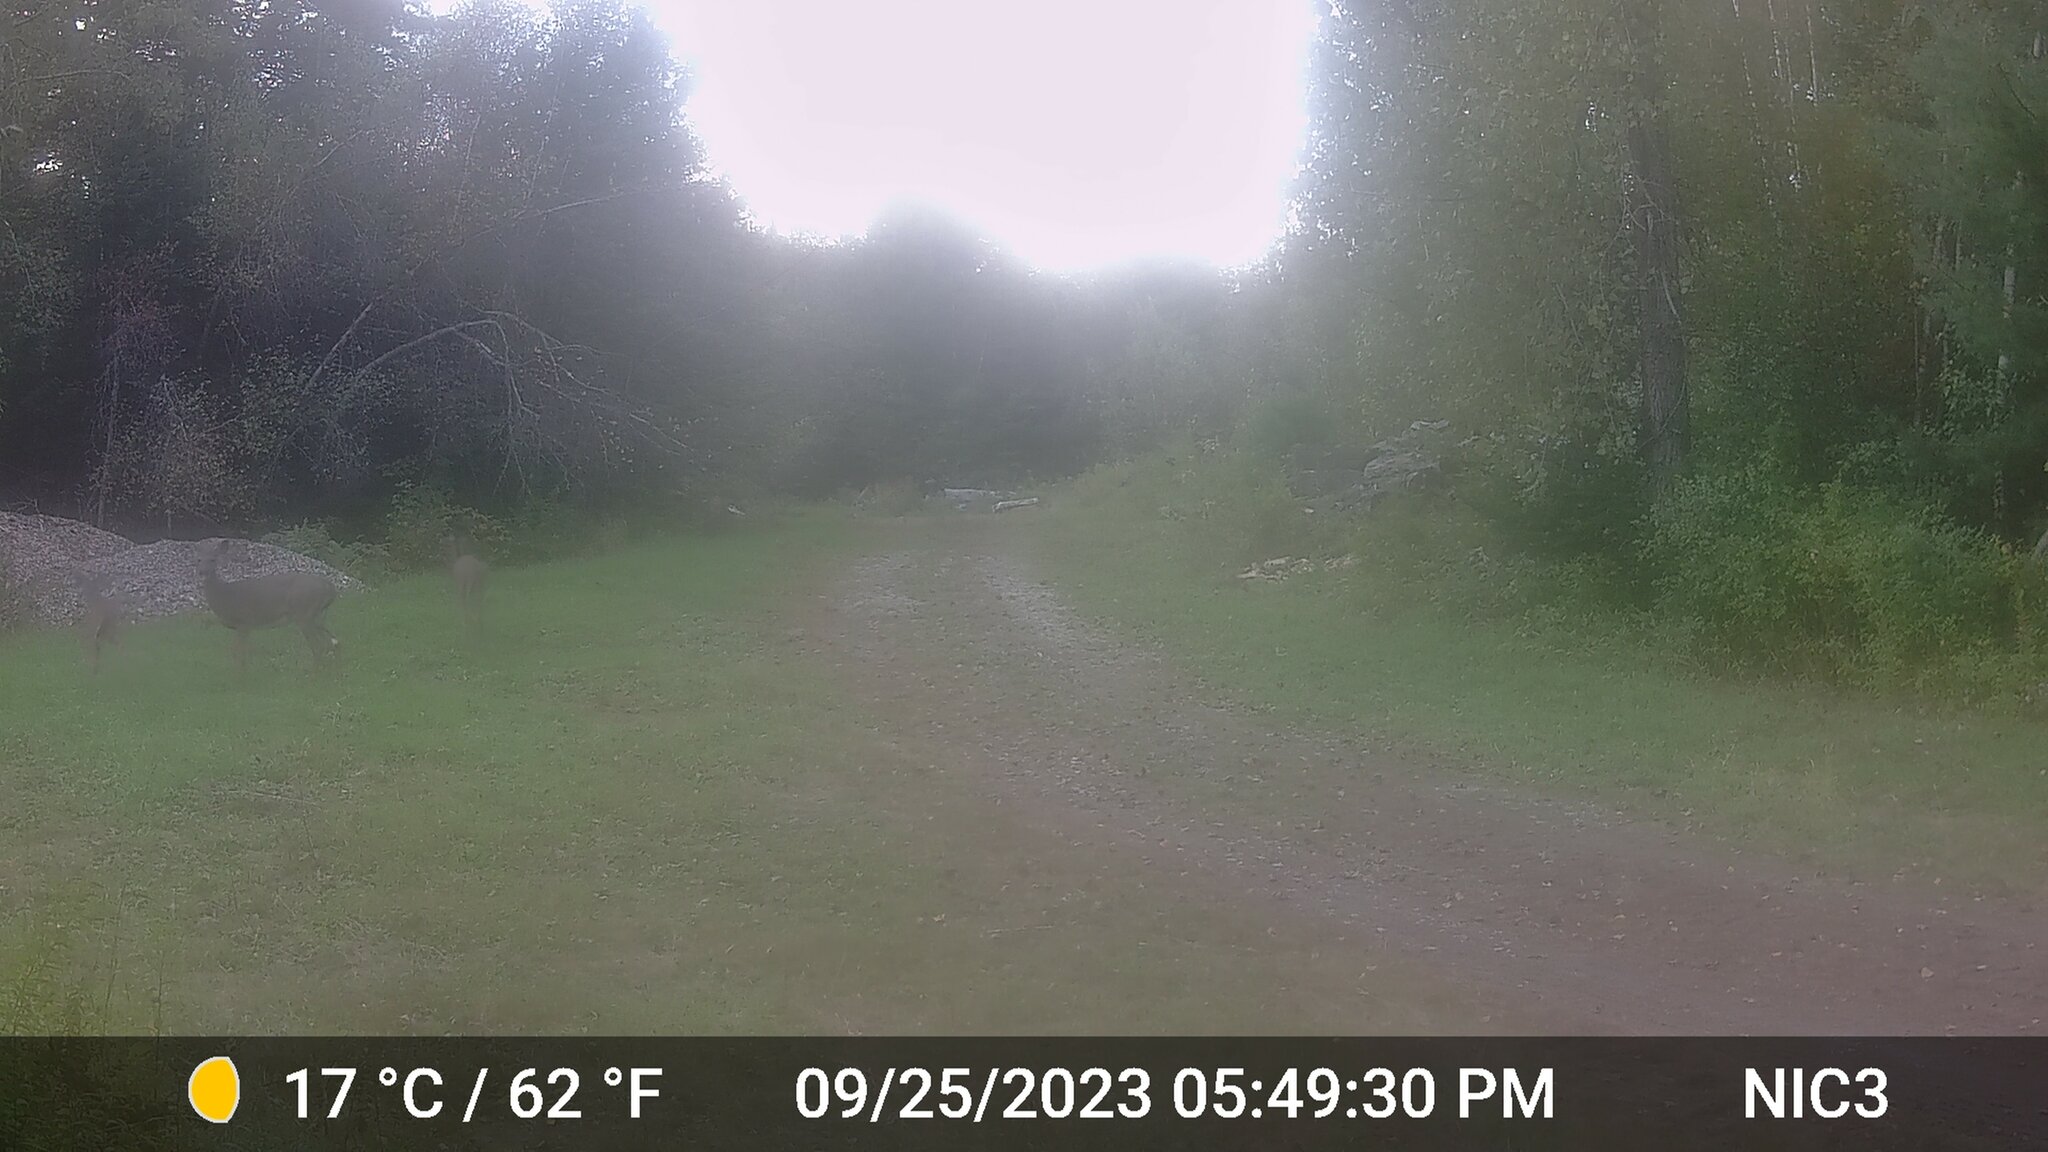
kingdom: Animalia
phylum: Chordata
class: Mammalia
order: Artiodactyla
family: Cervidae
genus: Odocoileus
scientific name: Odocoileus virginianus
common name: White-tailed deer
